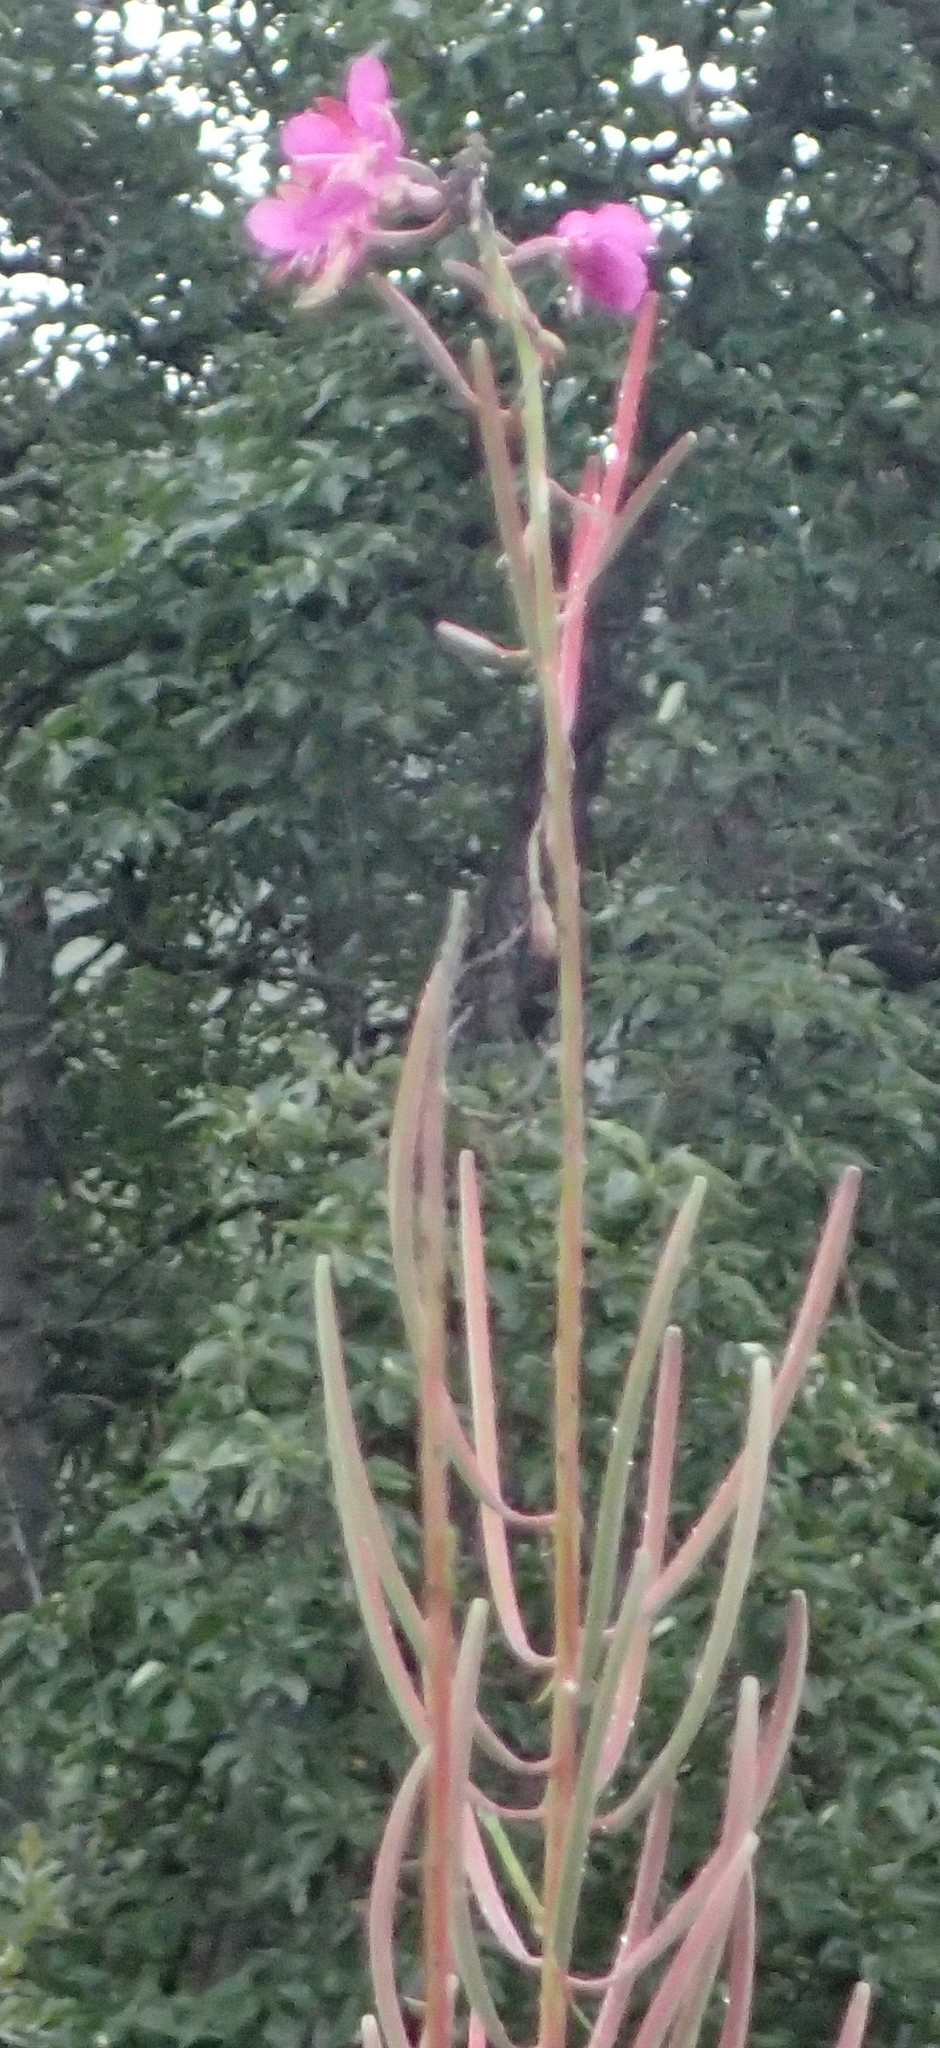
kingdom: Plantae
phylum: Tracheophyta
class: Magnoliopsida
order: Myrtales
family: Onagraceae
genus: Chamaenerion
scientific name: Chamaenerion angustifolium
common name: Fireweed
